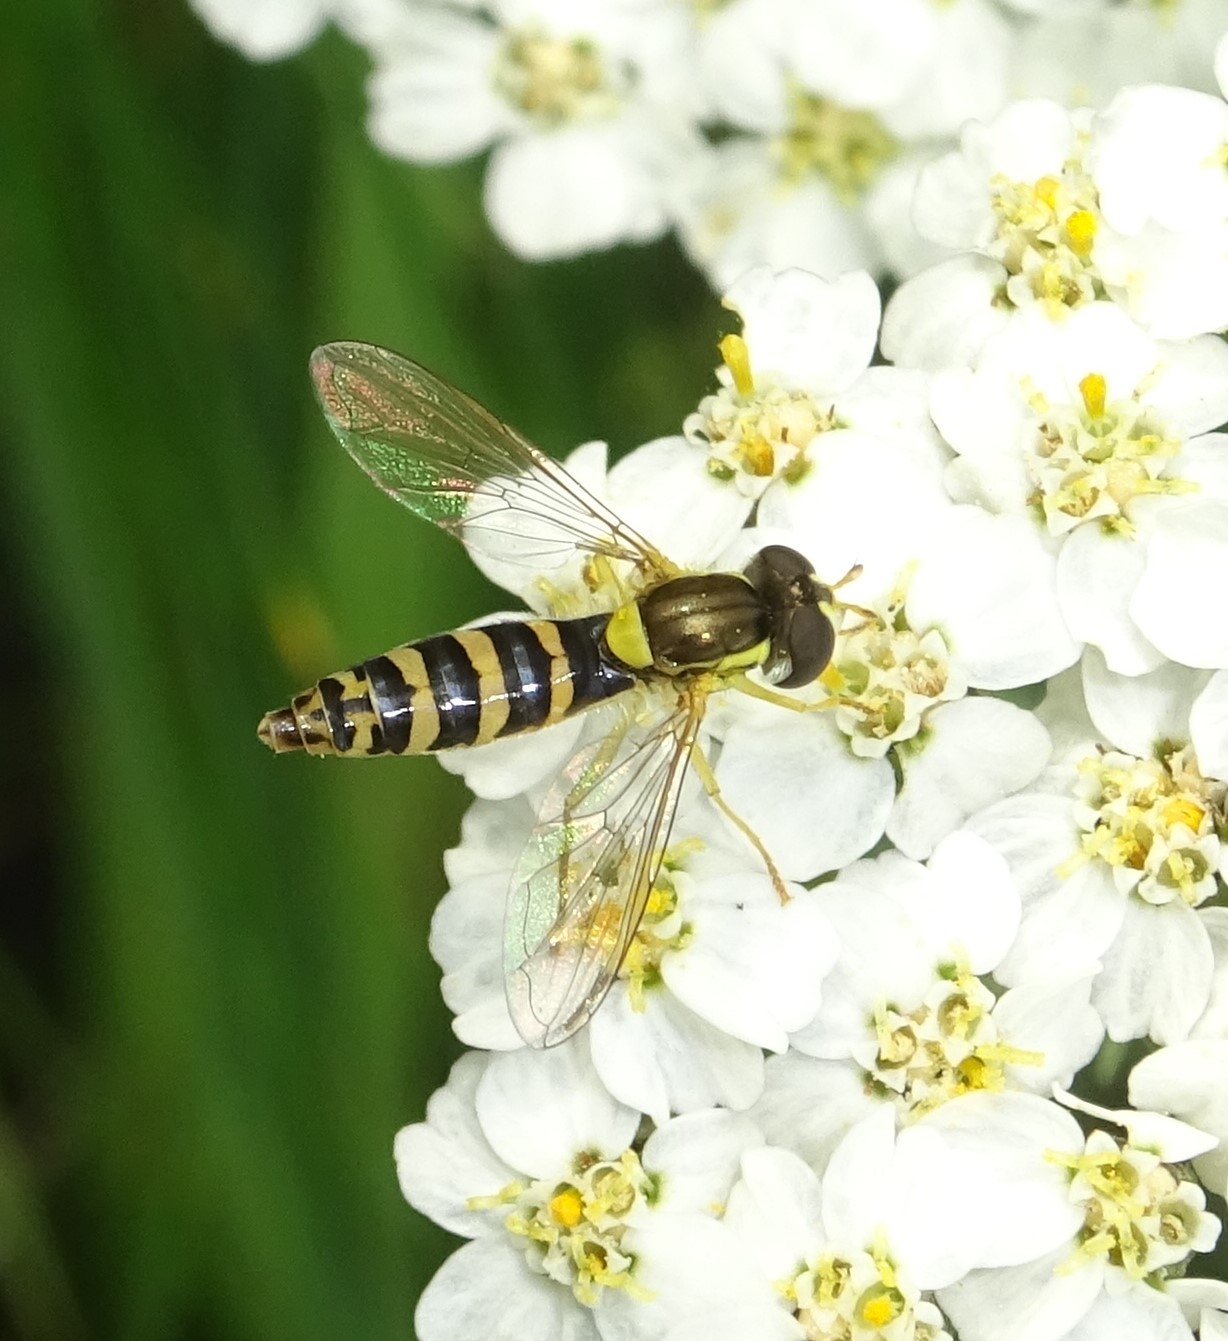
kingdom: Animalia
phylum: Arthropoda
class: Insecta
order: Diptera
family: Syrphidae
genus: Sphaerophoria
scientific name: Sphaerophoria
